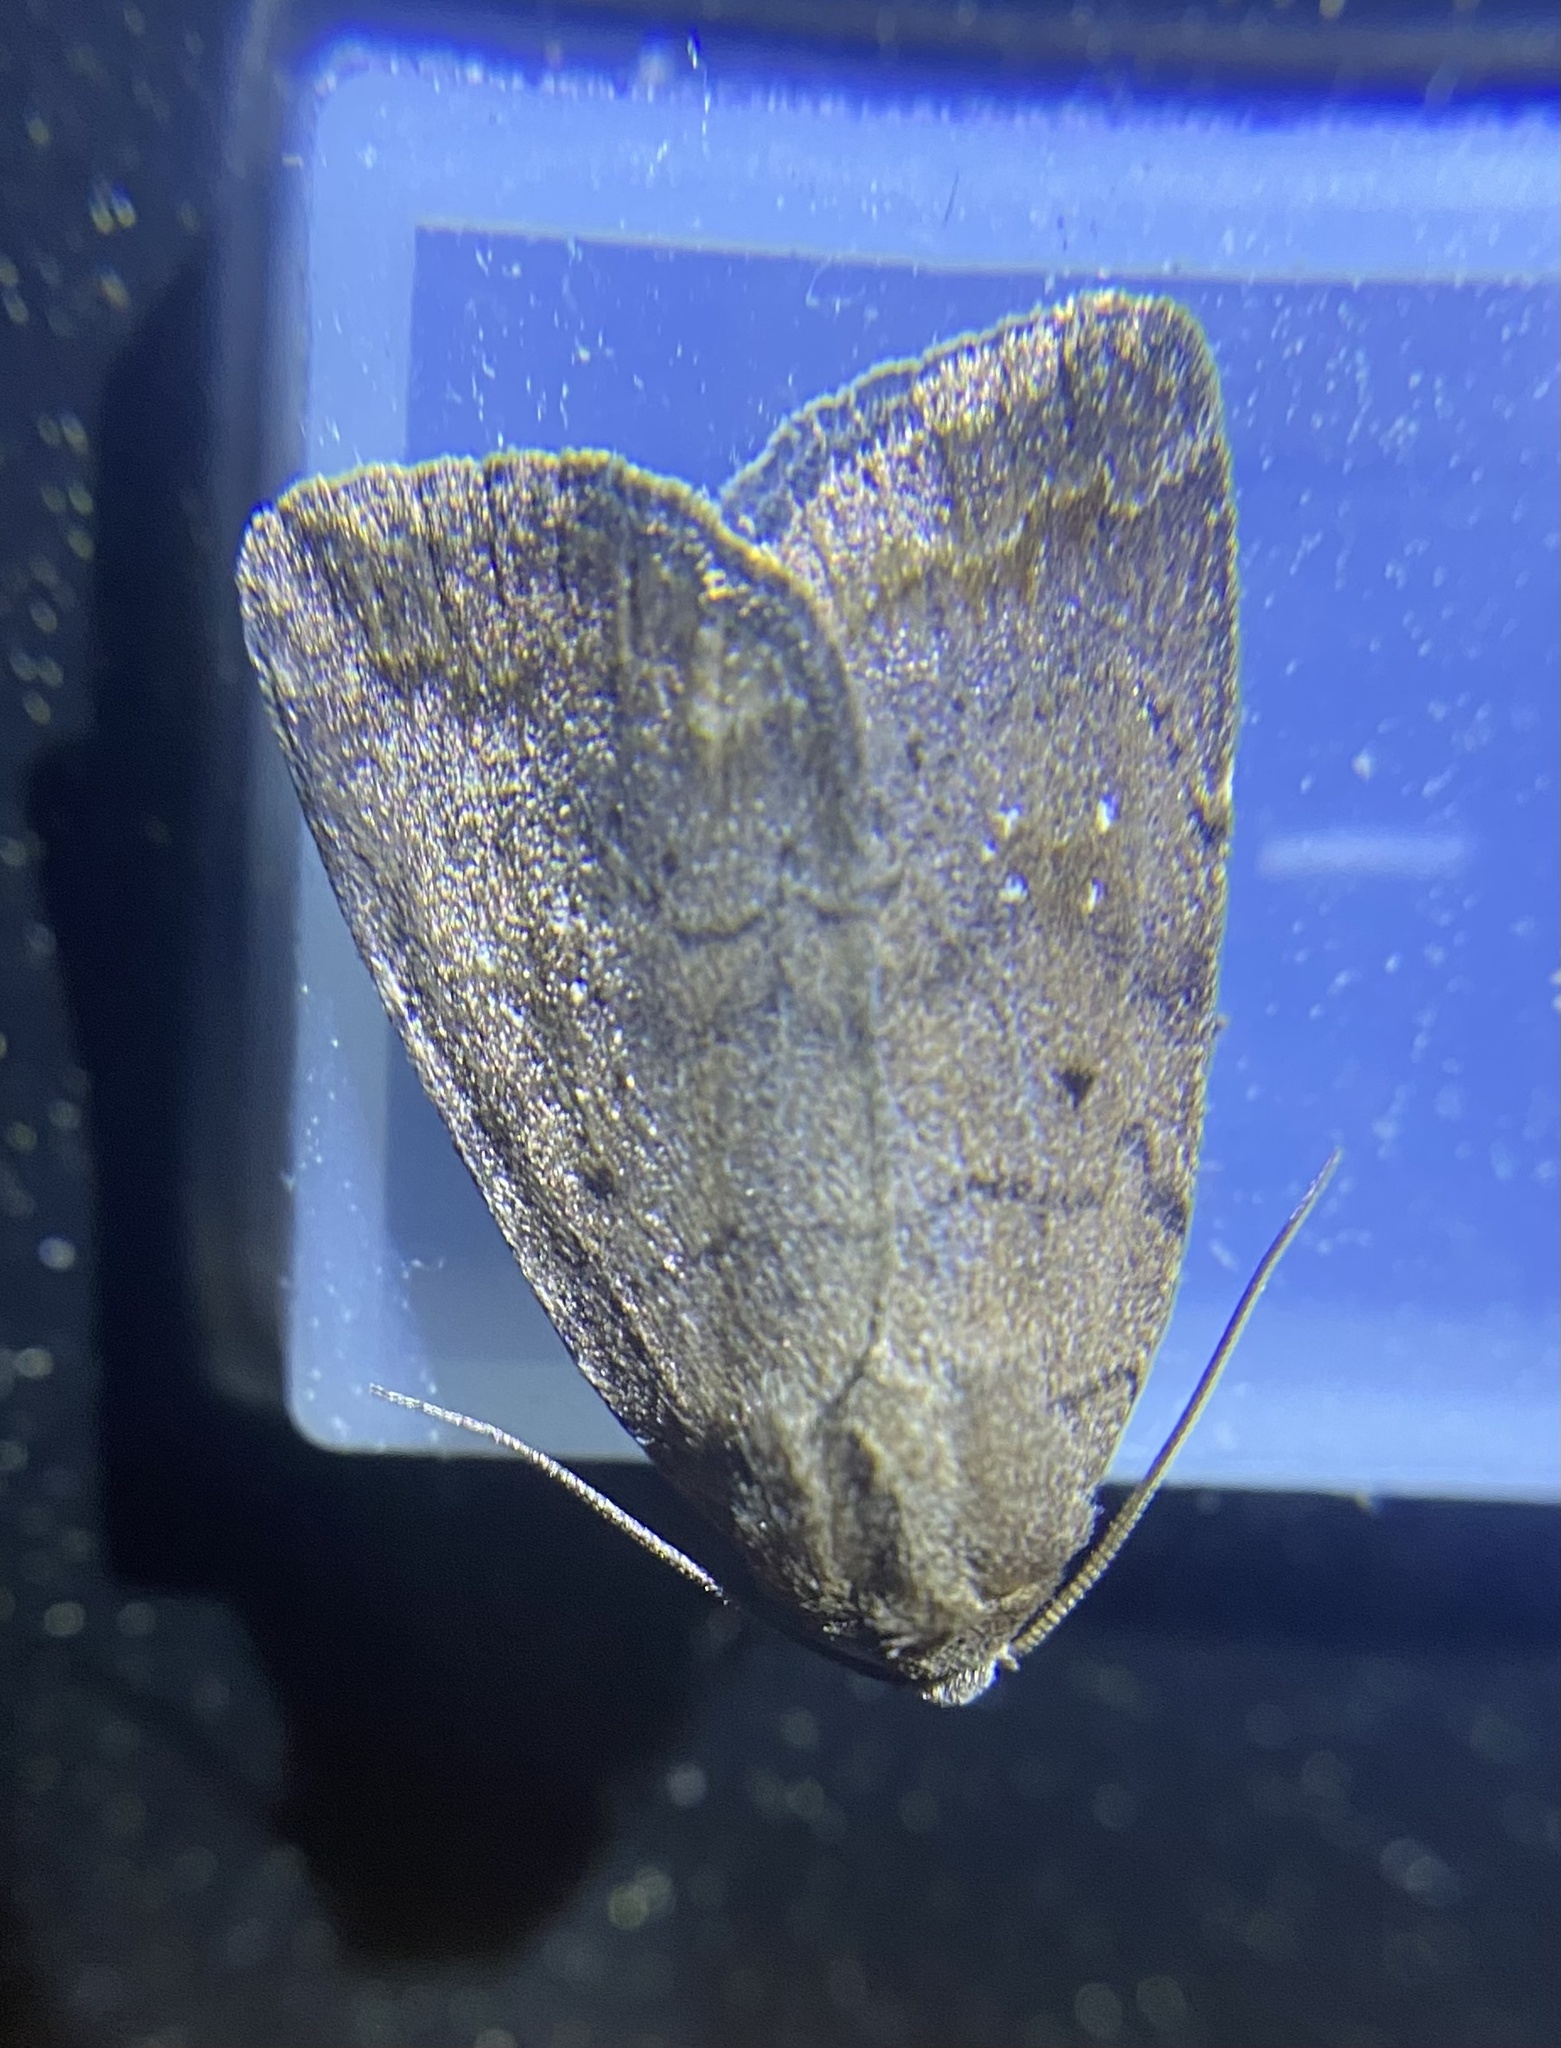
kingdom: Animalia
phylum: Arthropoda
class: Insecta
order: Lepidoptera
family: Noctuidae
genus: Athetis
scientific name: Athetis tarda
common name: Slowpoke moth
